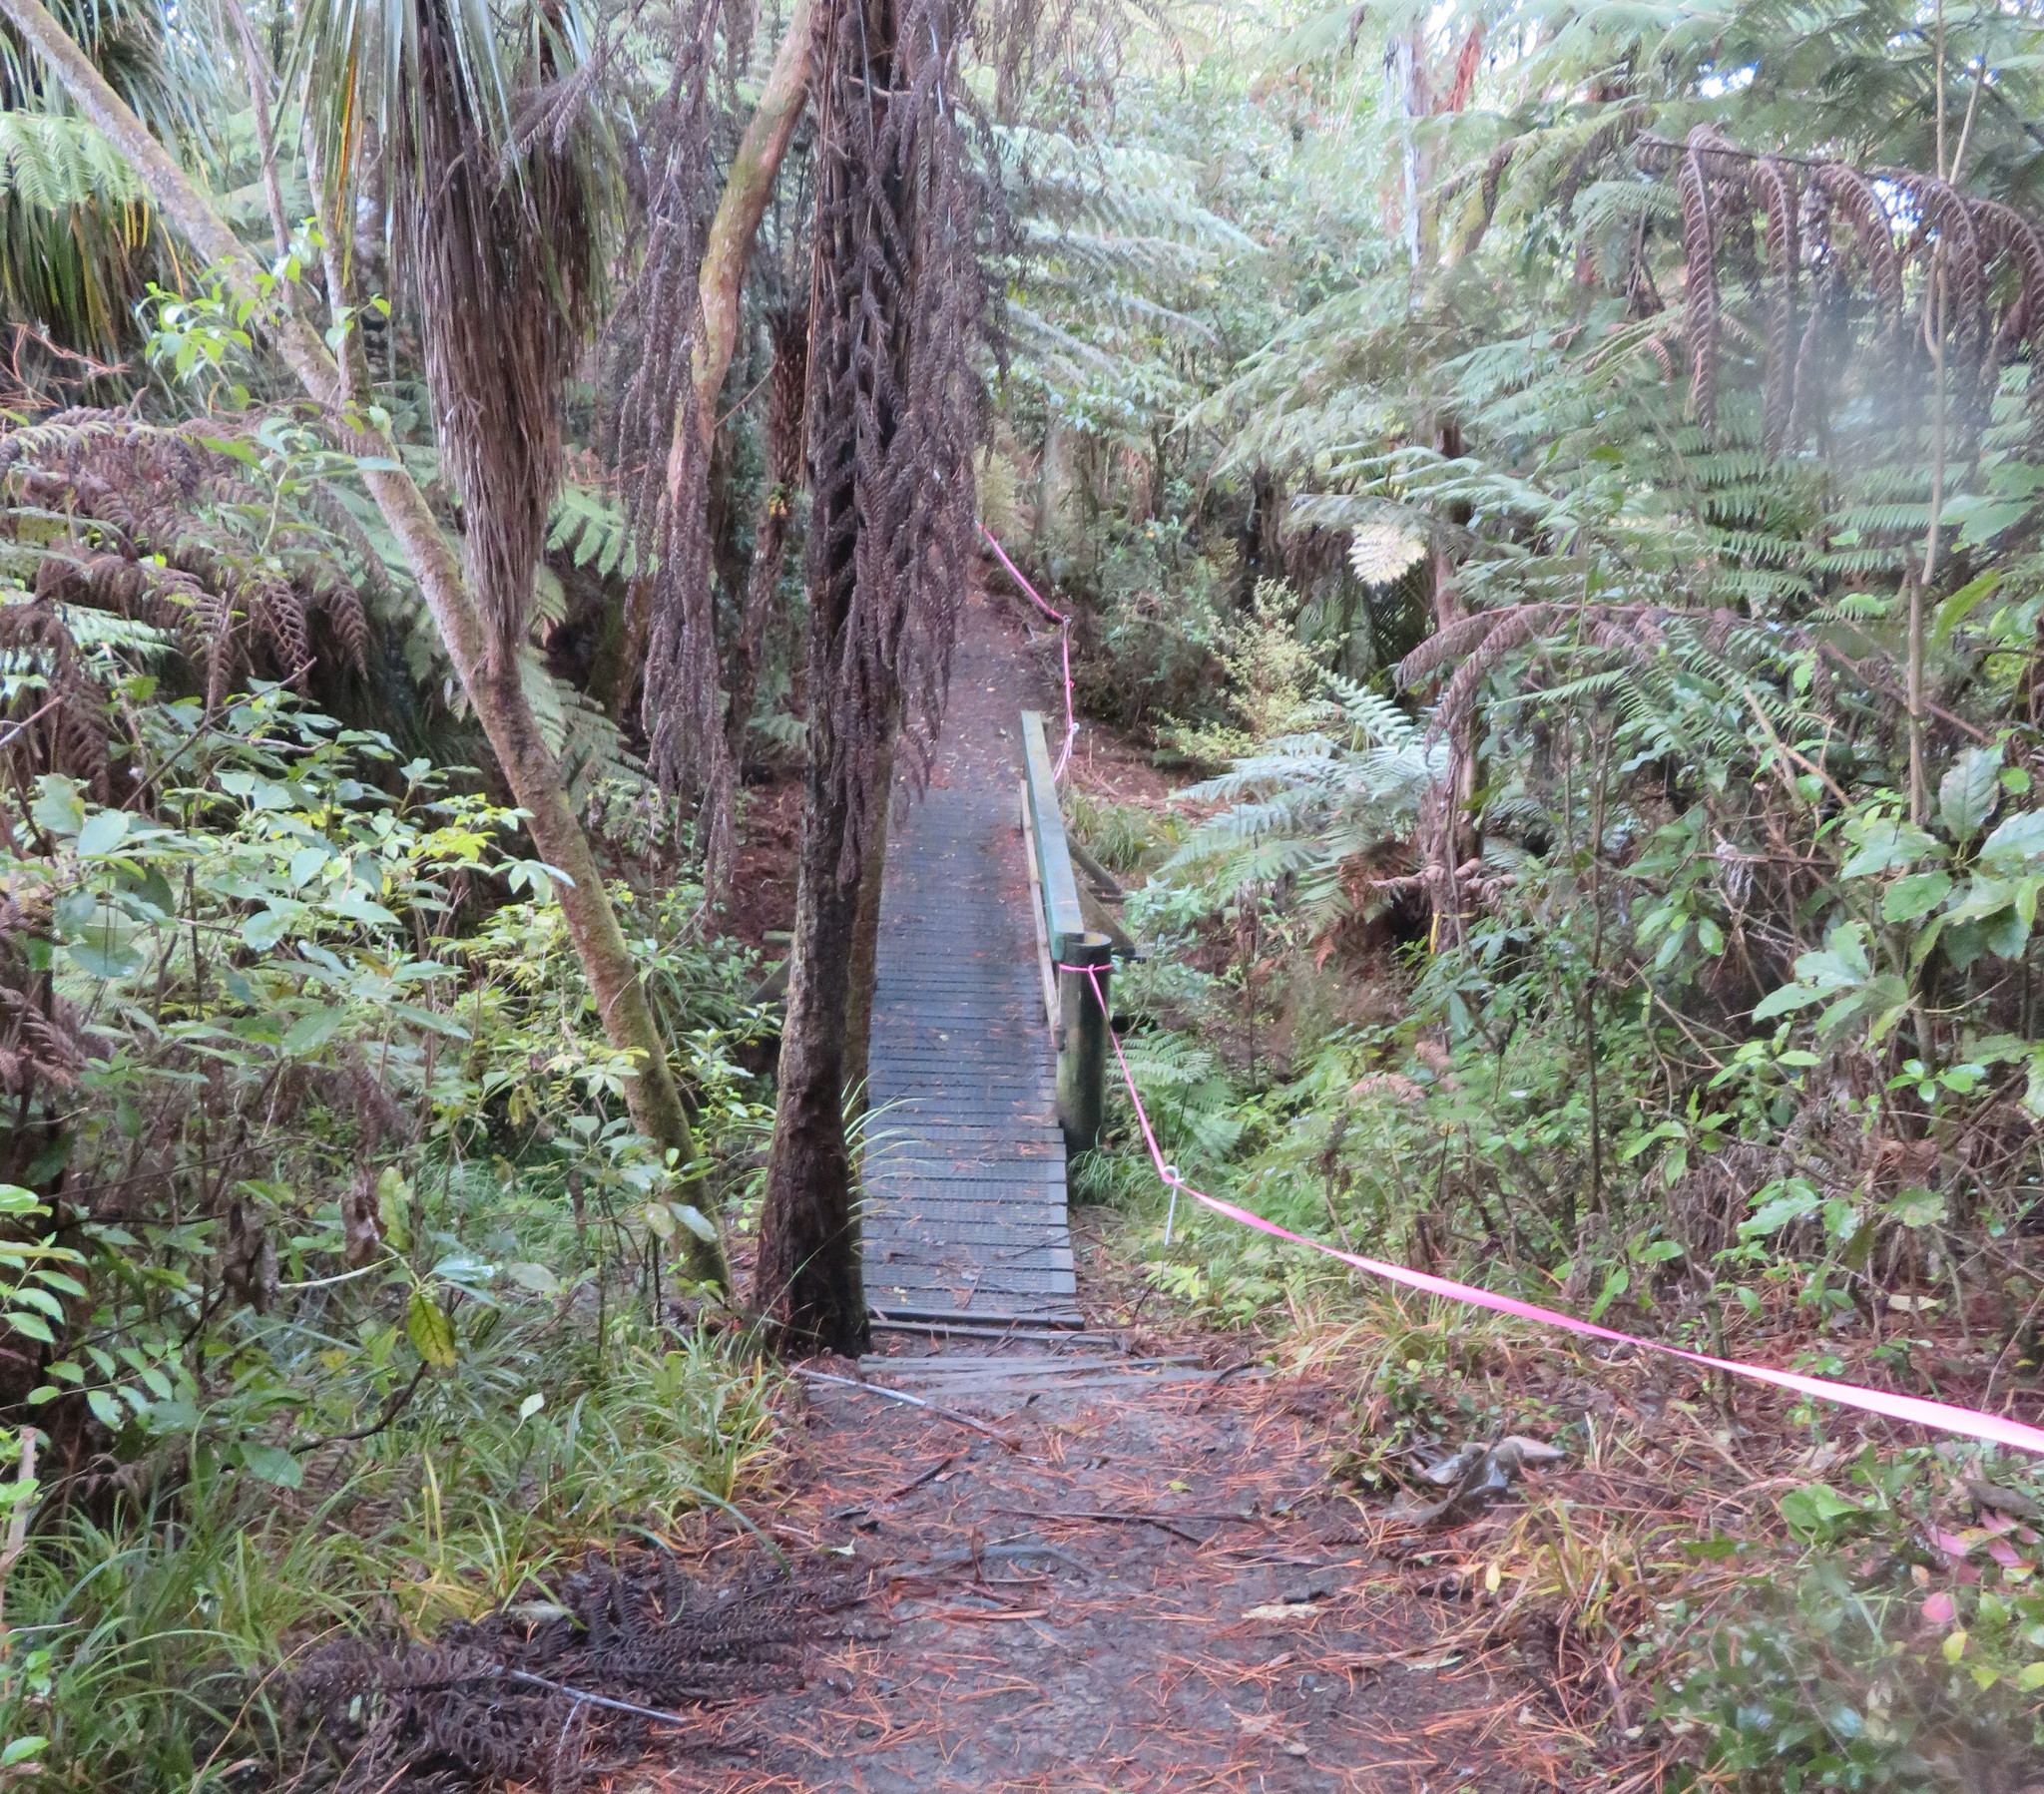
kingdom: Plantae
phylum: Tracheophyta
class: Liliopsida
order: Asparagales
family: Asparagaceae
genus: Cordyline
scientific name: Cordyline australis
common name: Cabbage-palm
